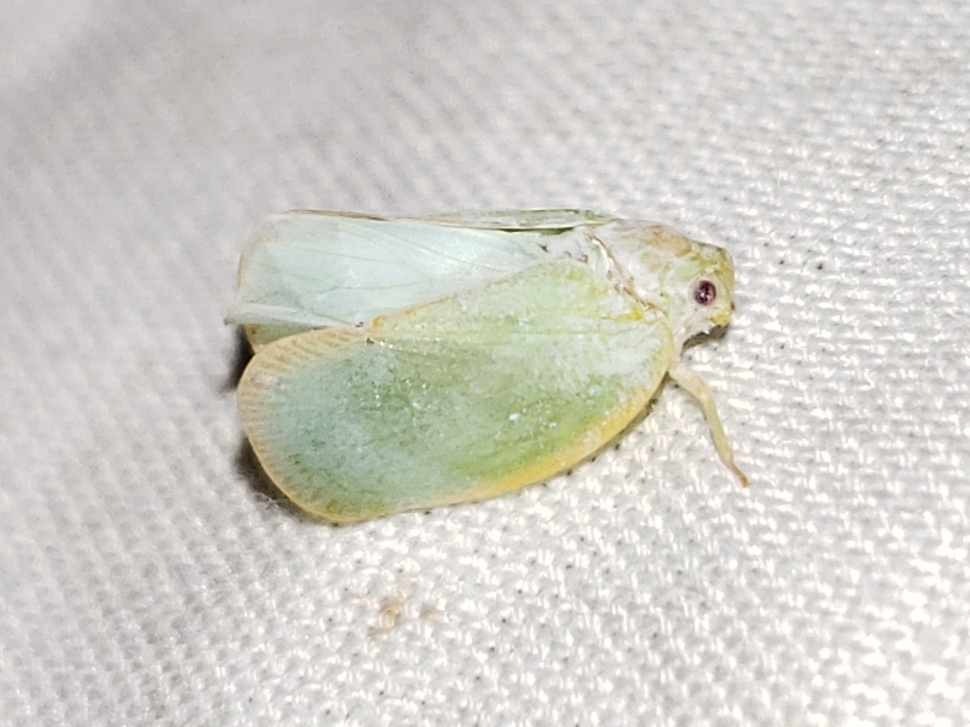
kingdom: Animalia
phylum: Arthropoda
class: Insecta
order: Hemiptera
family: Flatidae
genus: Ormenoides
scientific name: Ormenoides venusta
